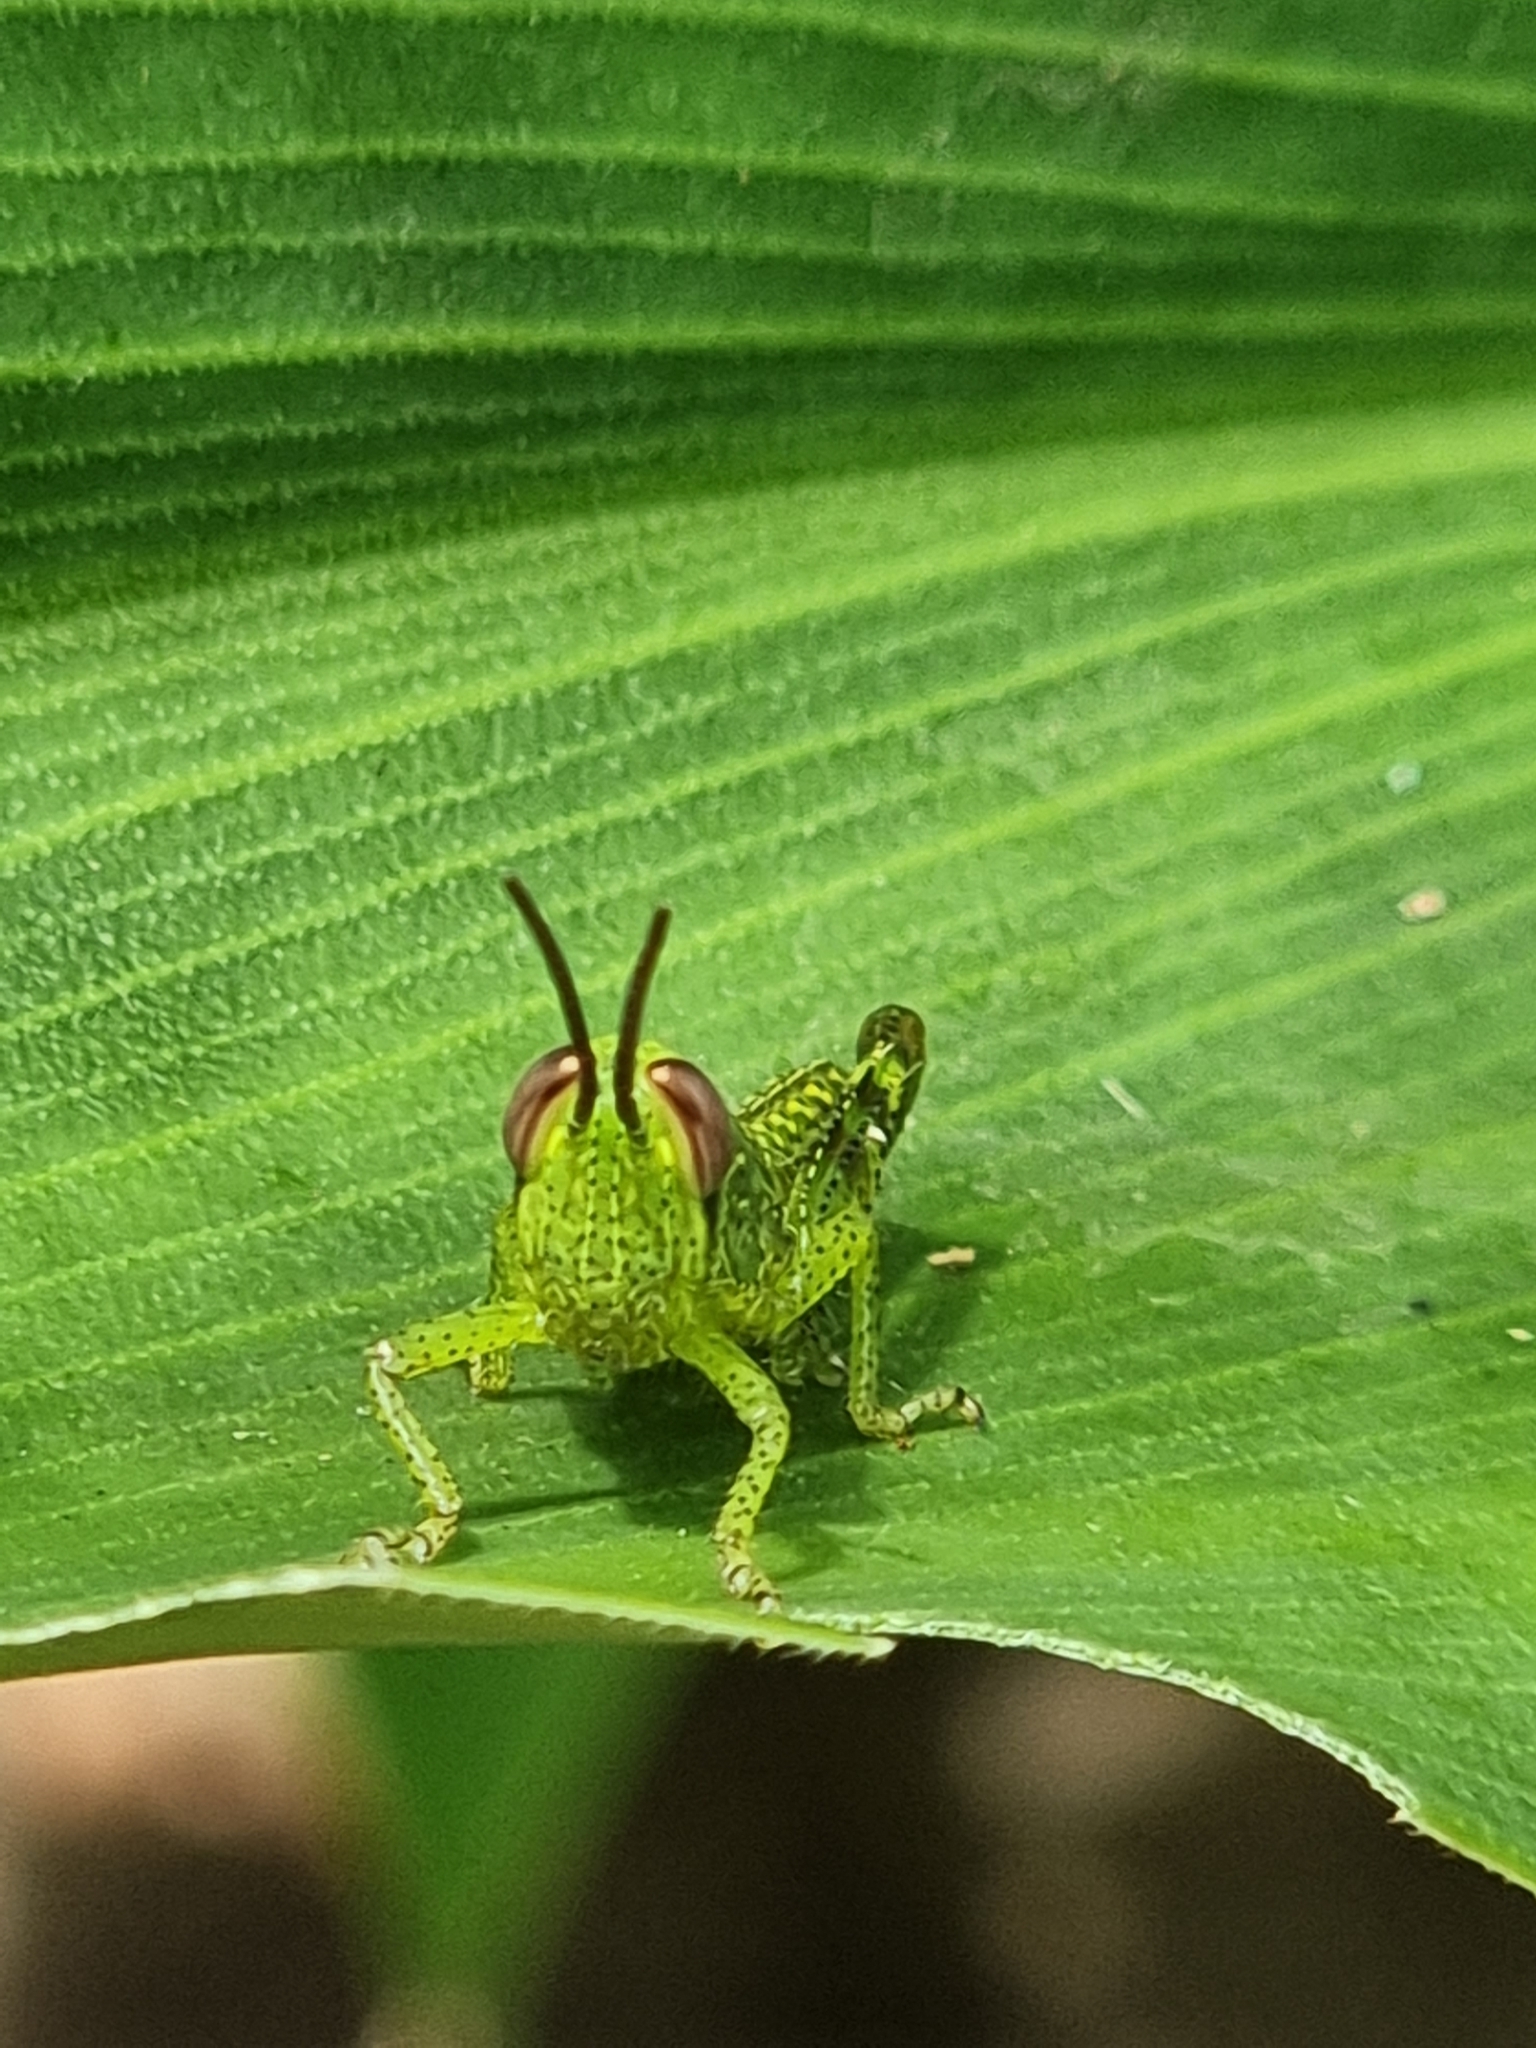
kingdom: Animalia
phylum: Arthropoda
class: Insecta
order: Orthoptera
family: Acrididae
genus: Valanga
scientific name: Valanga irregularis
